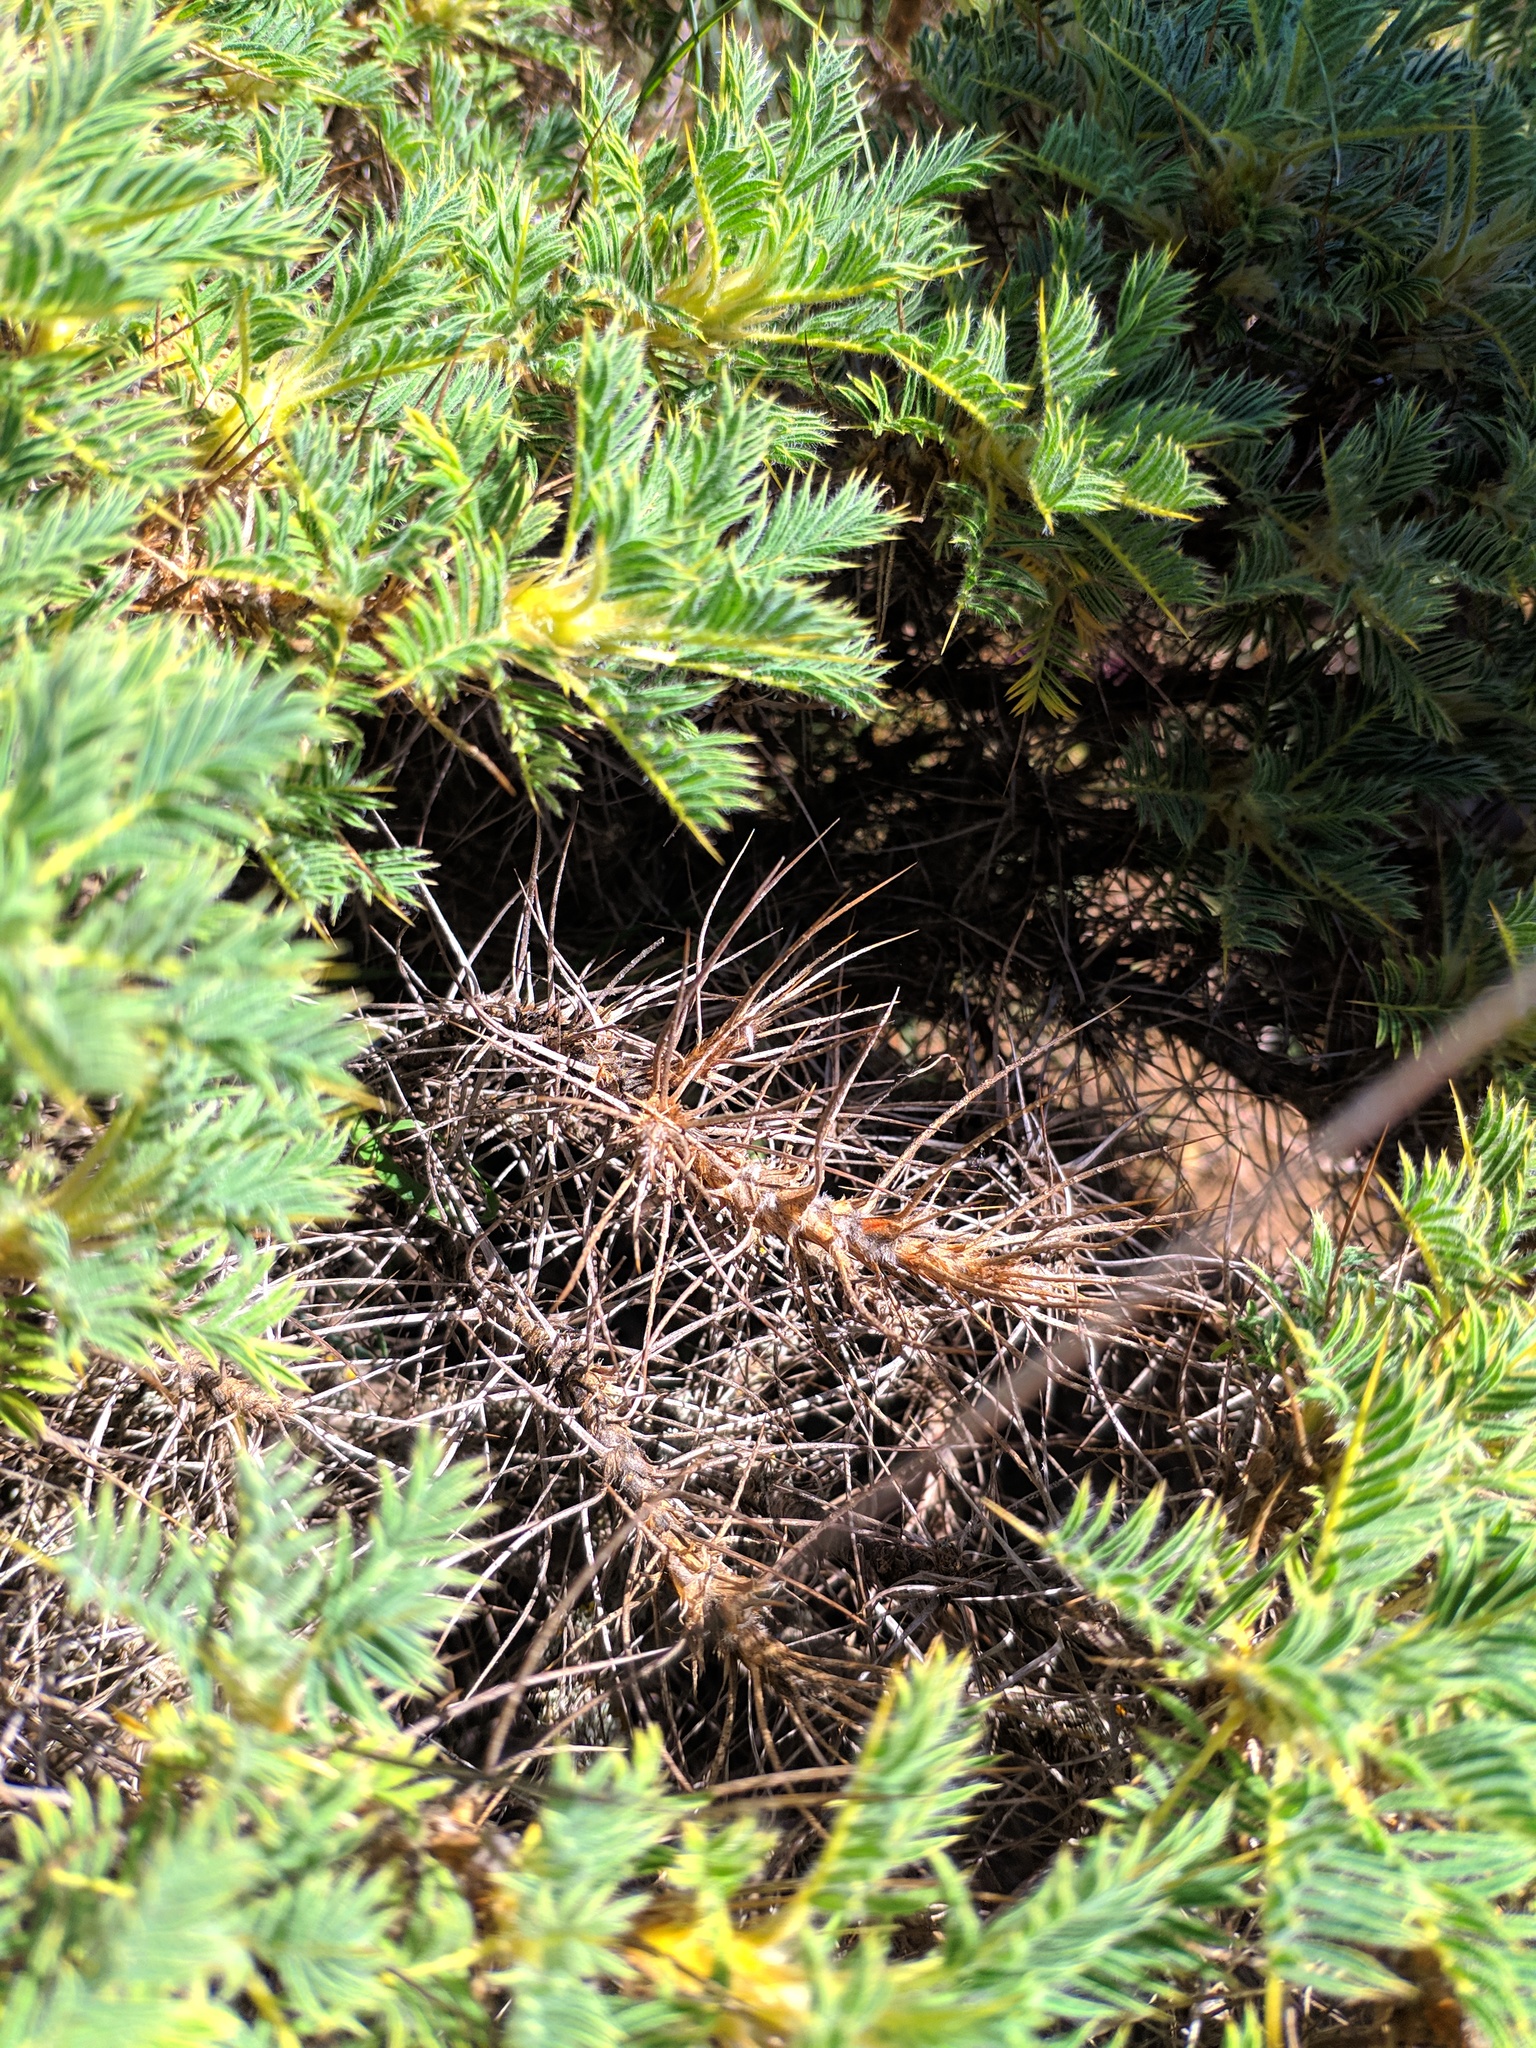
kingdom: Plantae
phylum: Tracheophyta
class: Magnoliopsida
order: Fabales
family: Fabaceae
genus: Astragalus
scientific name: Astragalus granatensis
